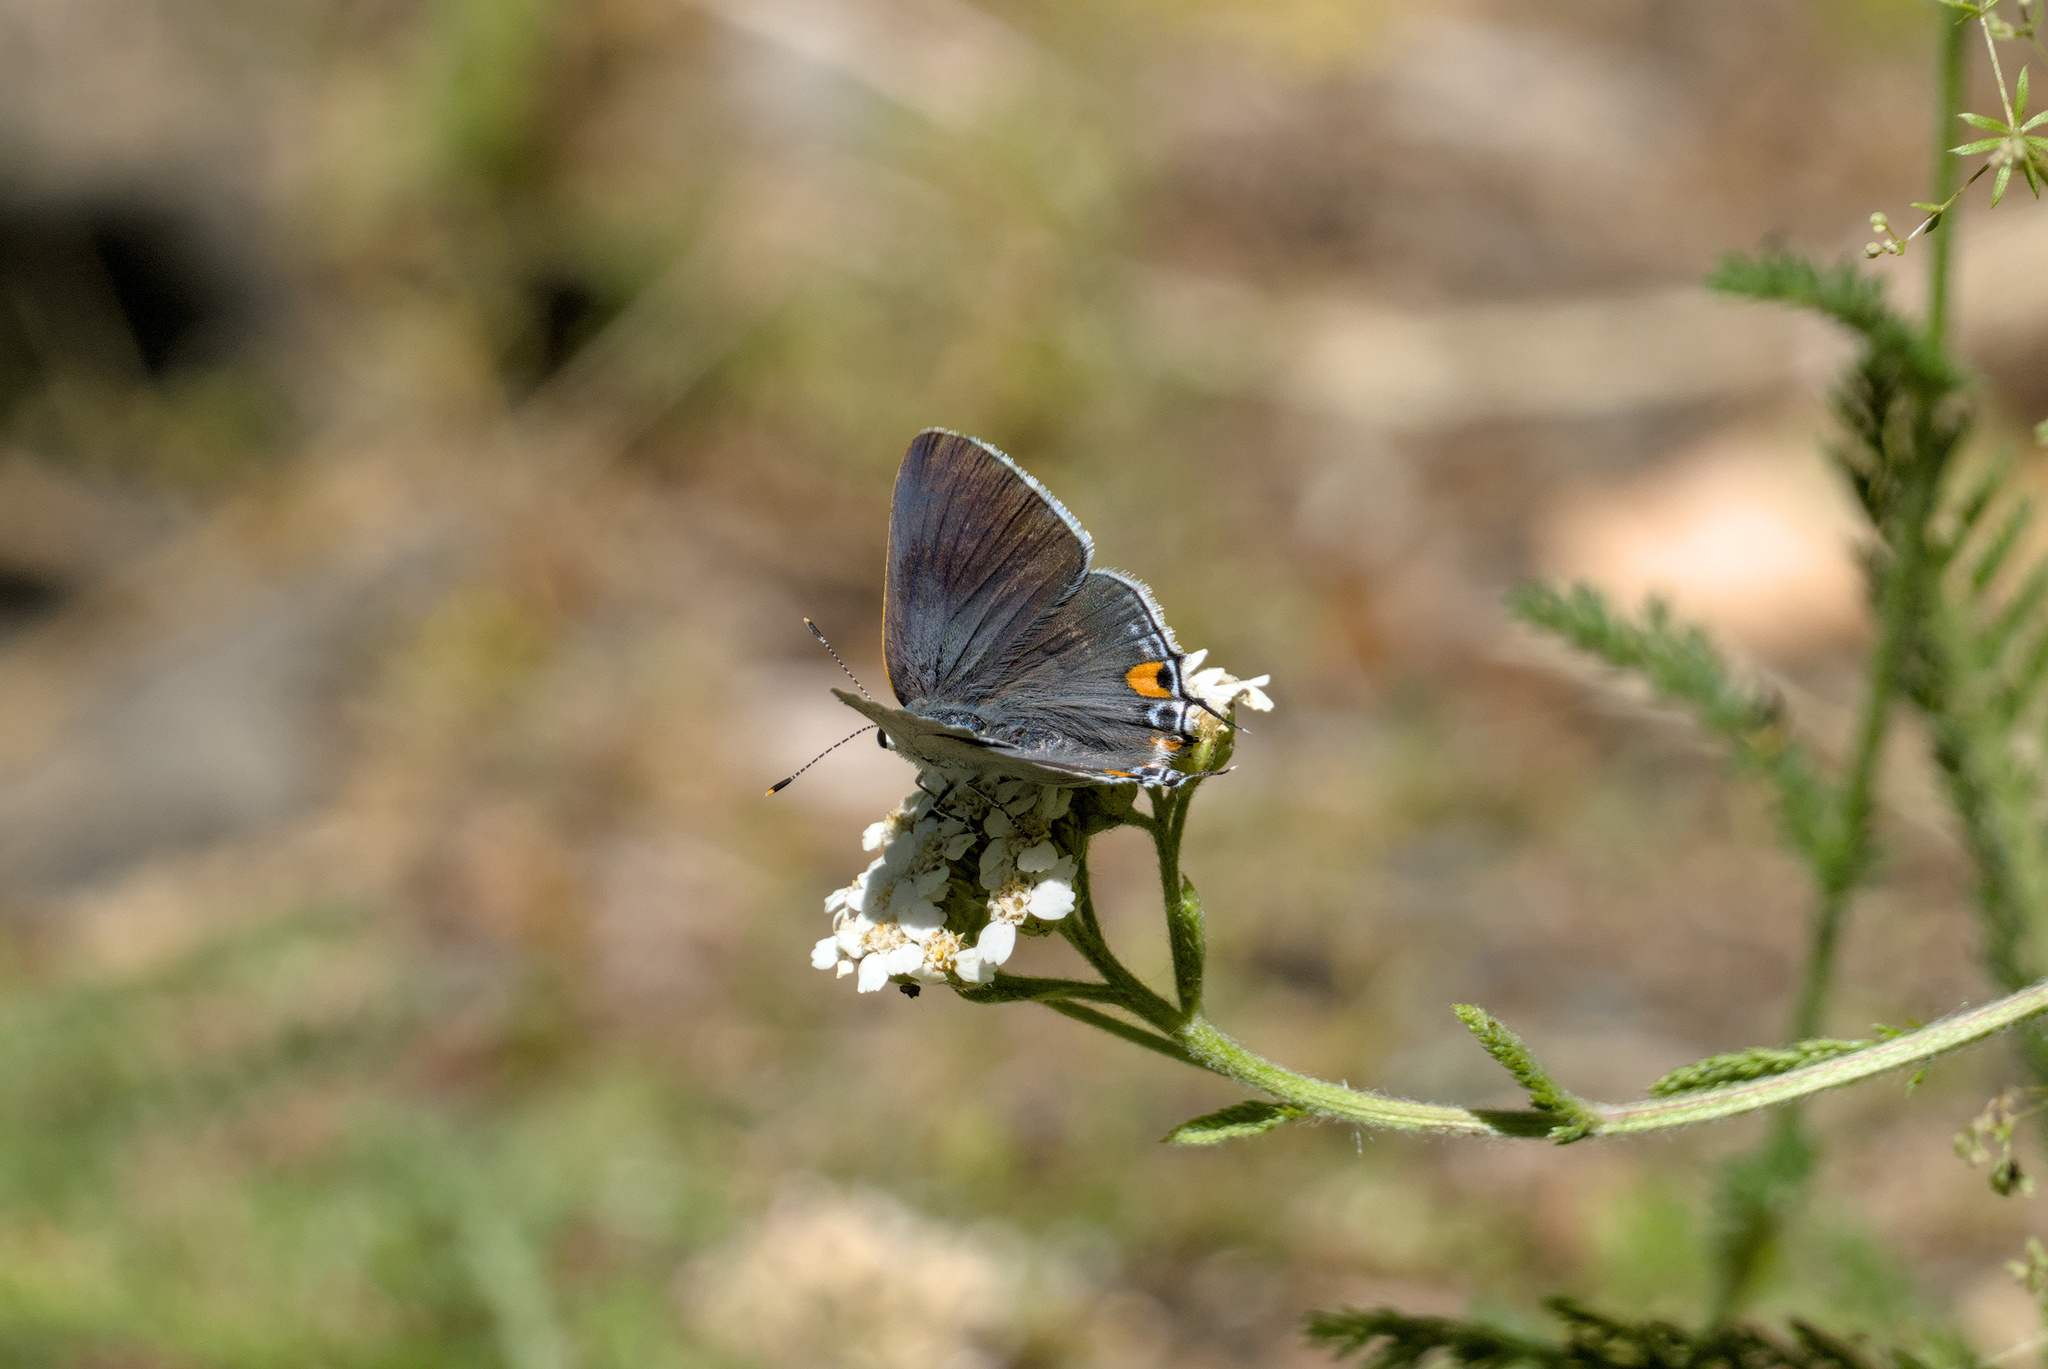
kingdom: Animalia
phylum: Arthropoda
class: Insecta
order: Lepidoptera
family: Lycaenidae
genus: Strymon
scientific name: Strymon melinus
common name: Gray hairstreak
